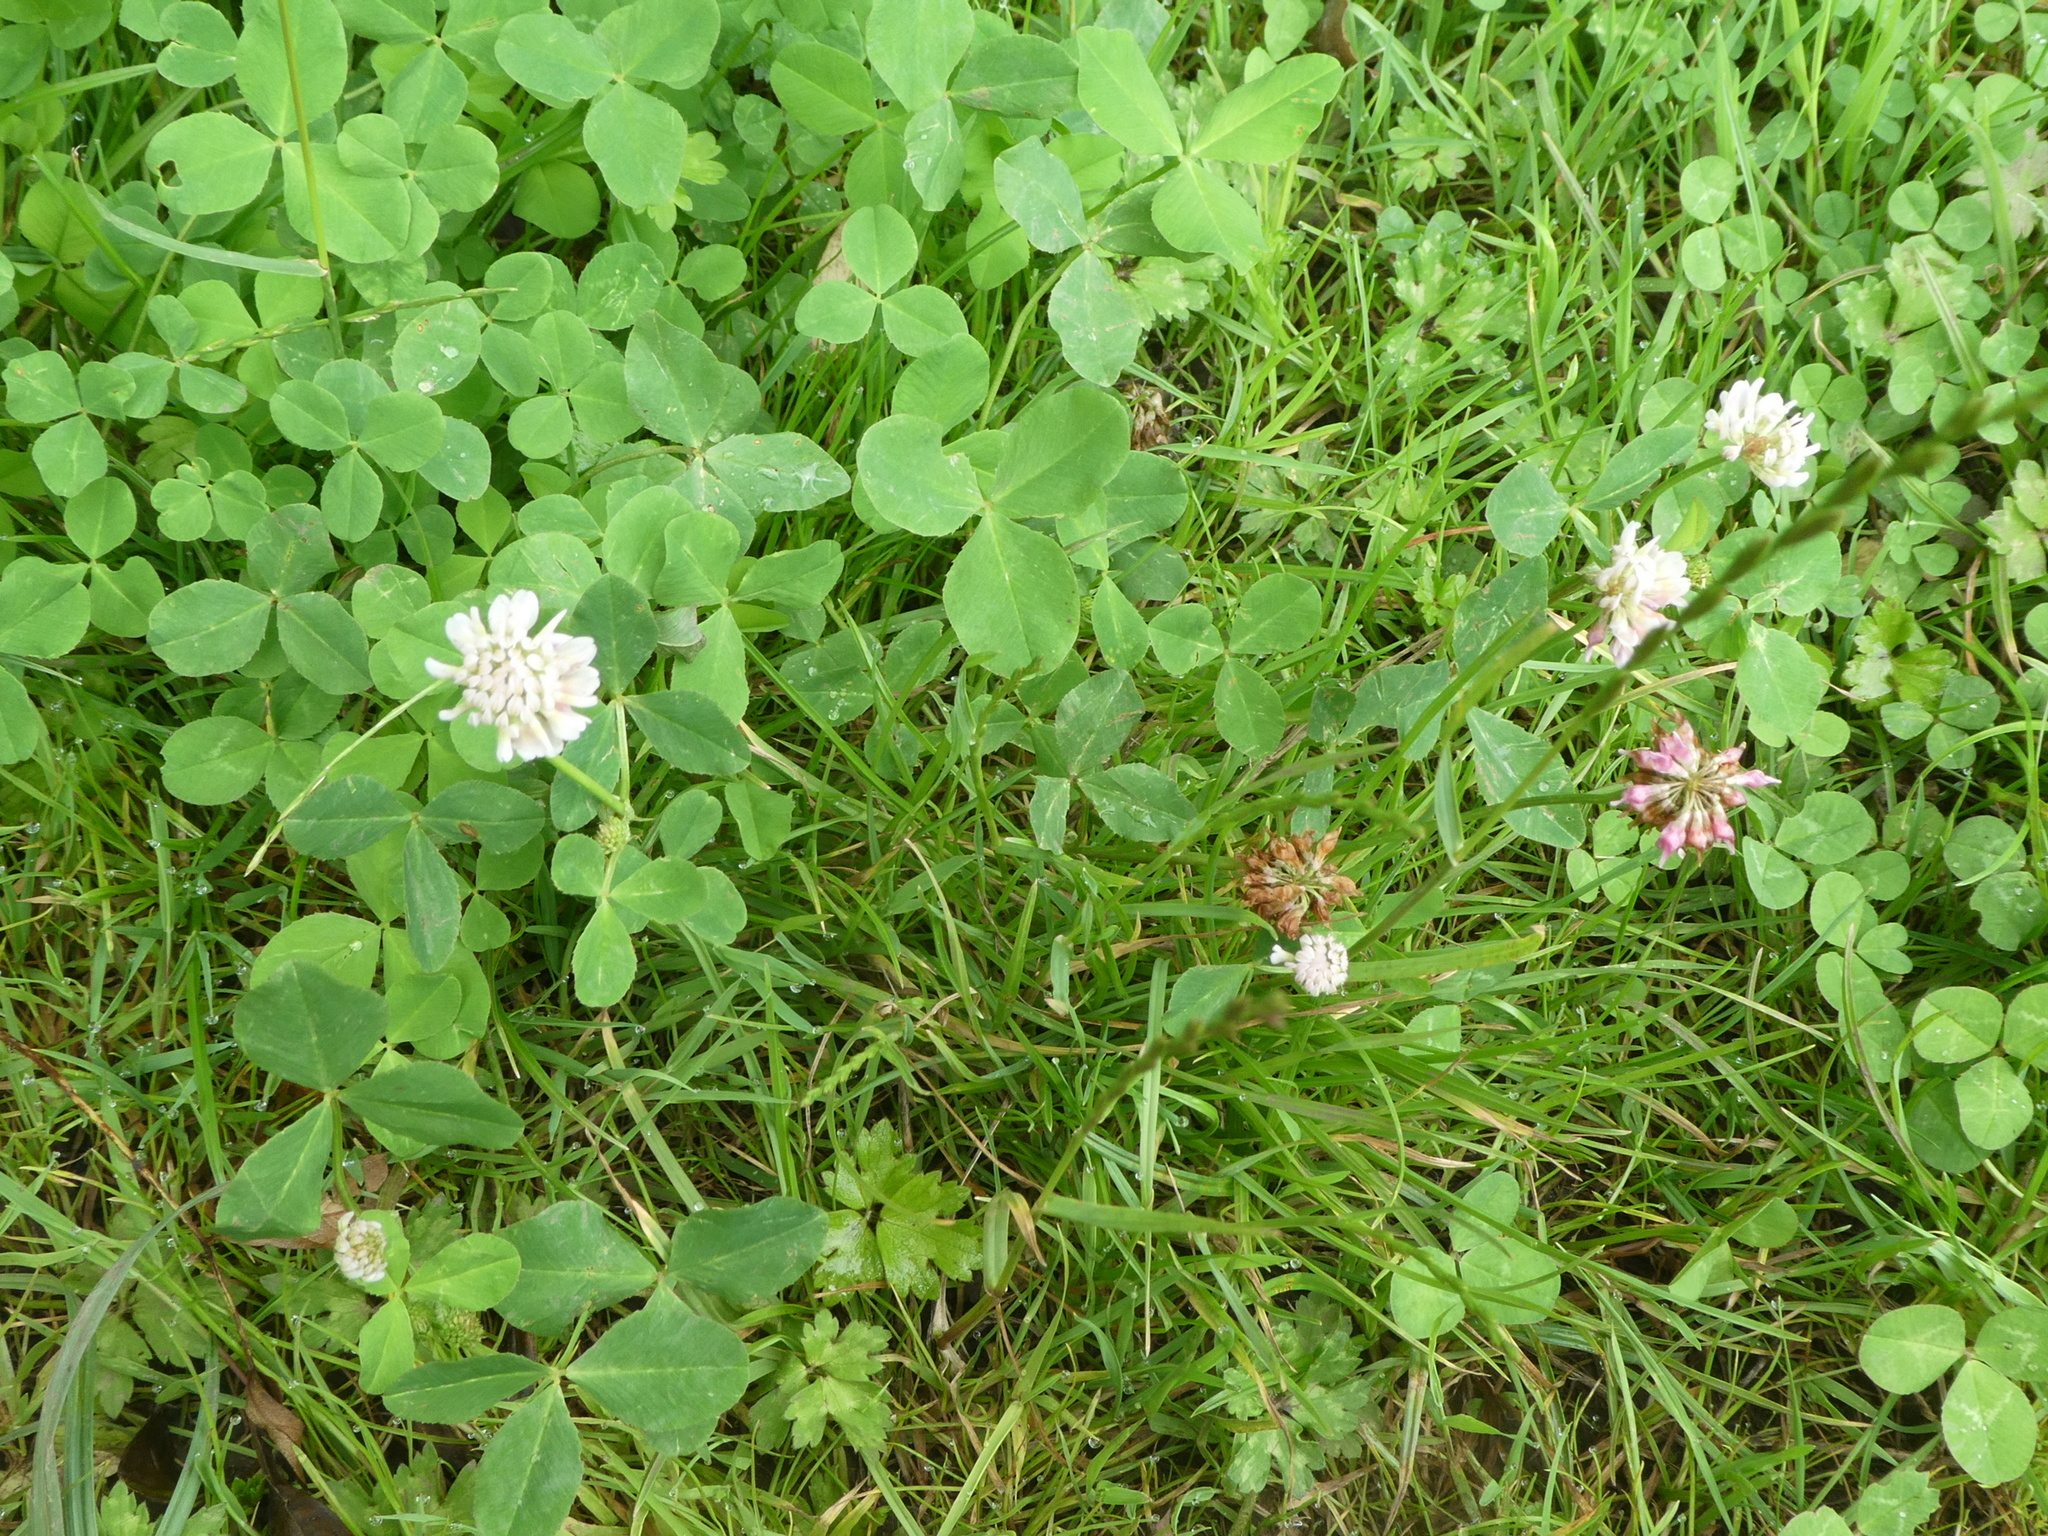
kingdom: Plantae
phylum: Tracheophyta
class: Magnoliopsida
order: Fabales
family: Fabaceae
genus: Trifolium
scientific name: Trifolium hybridum
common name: Alsike clover
